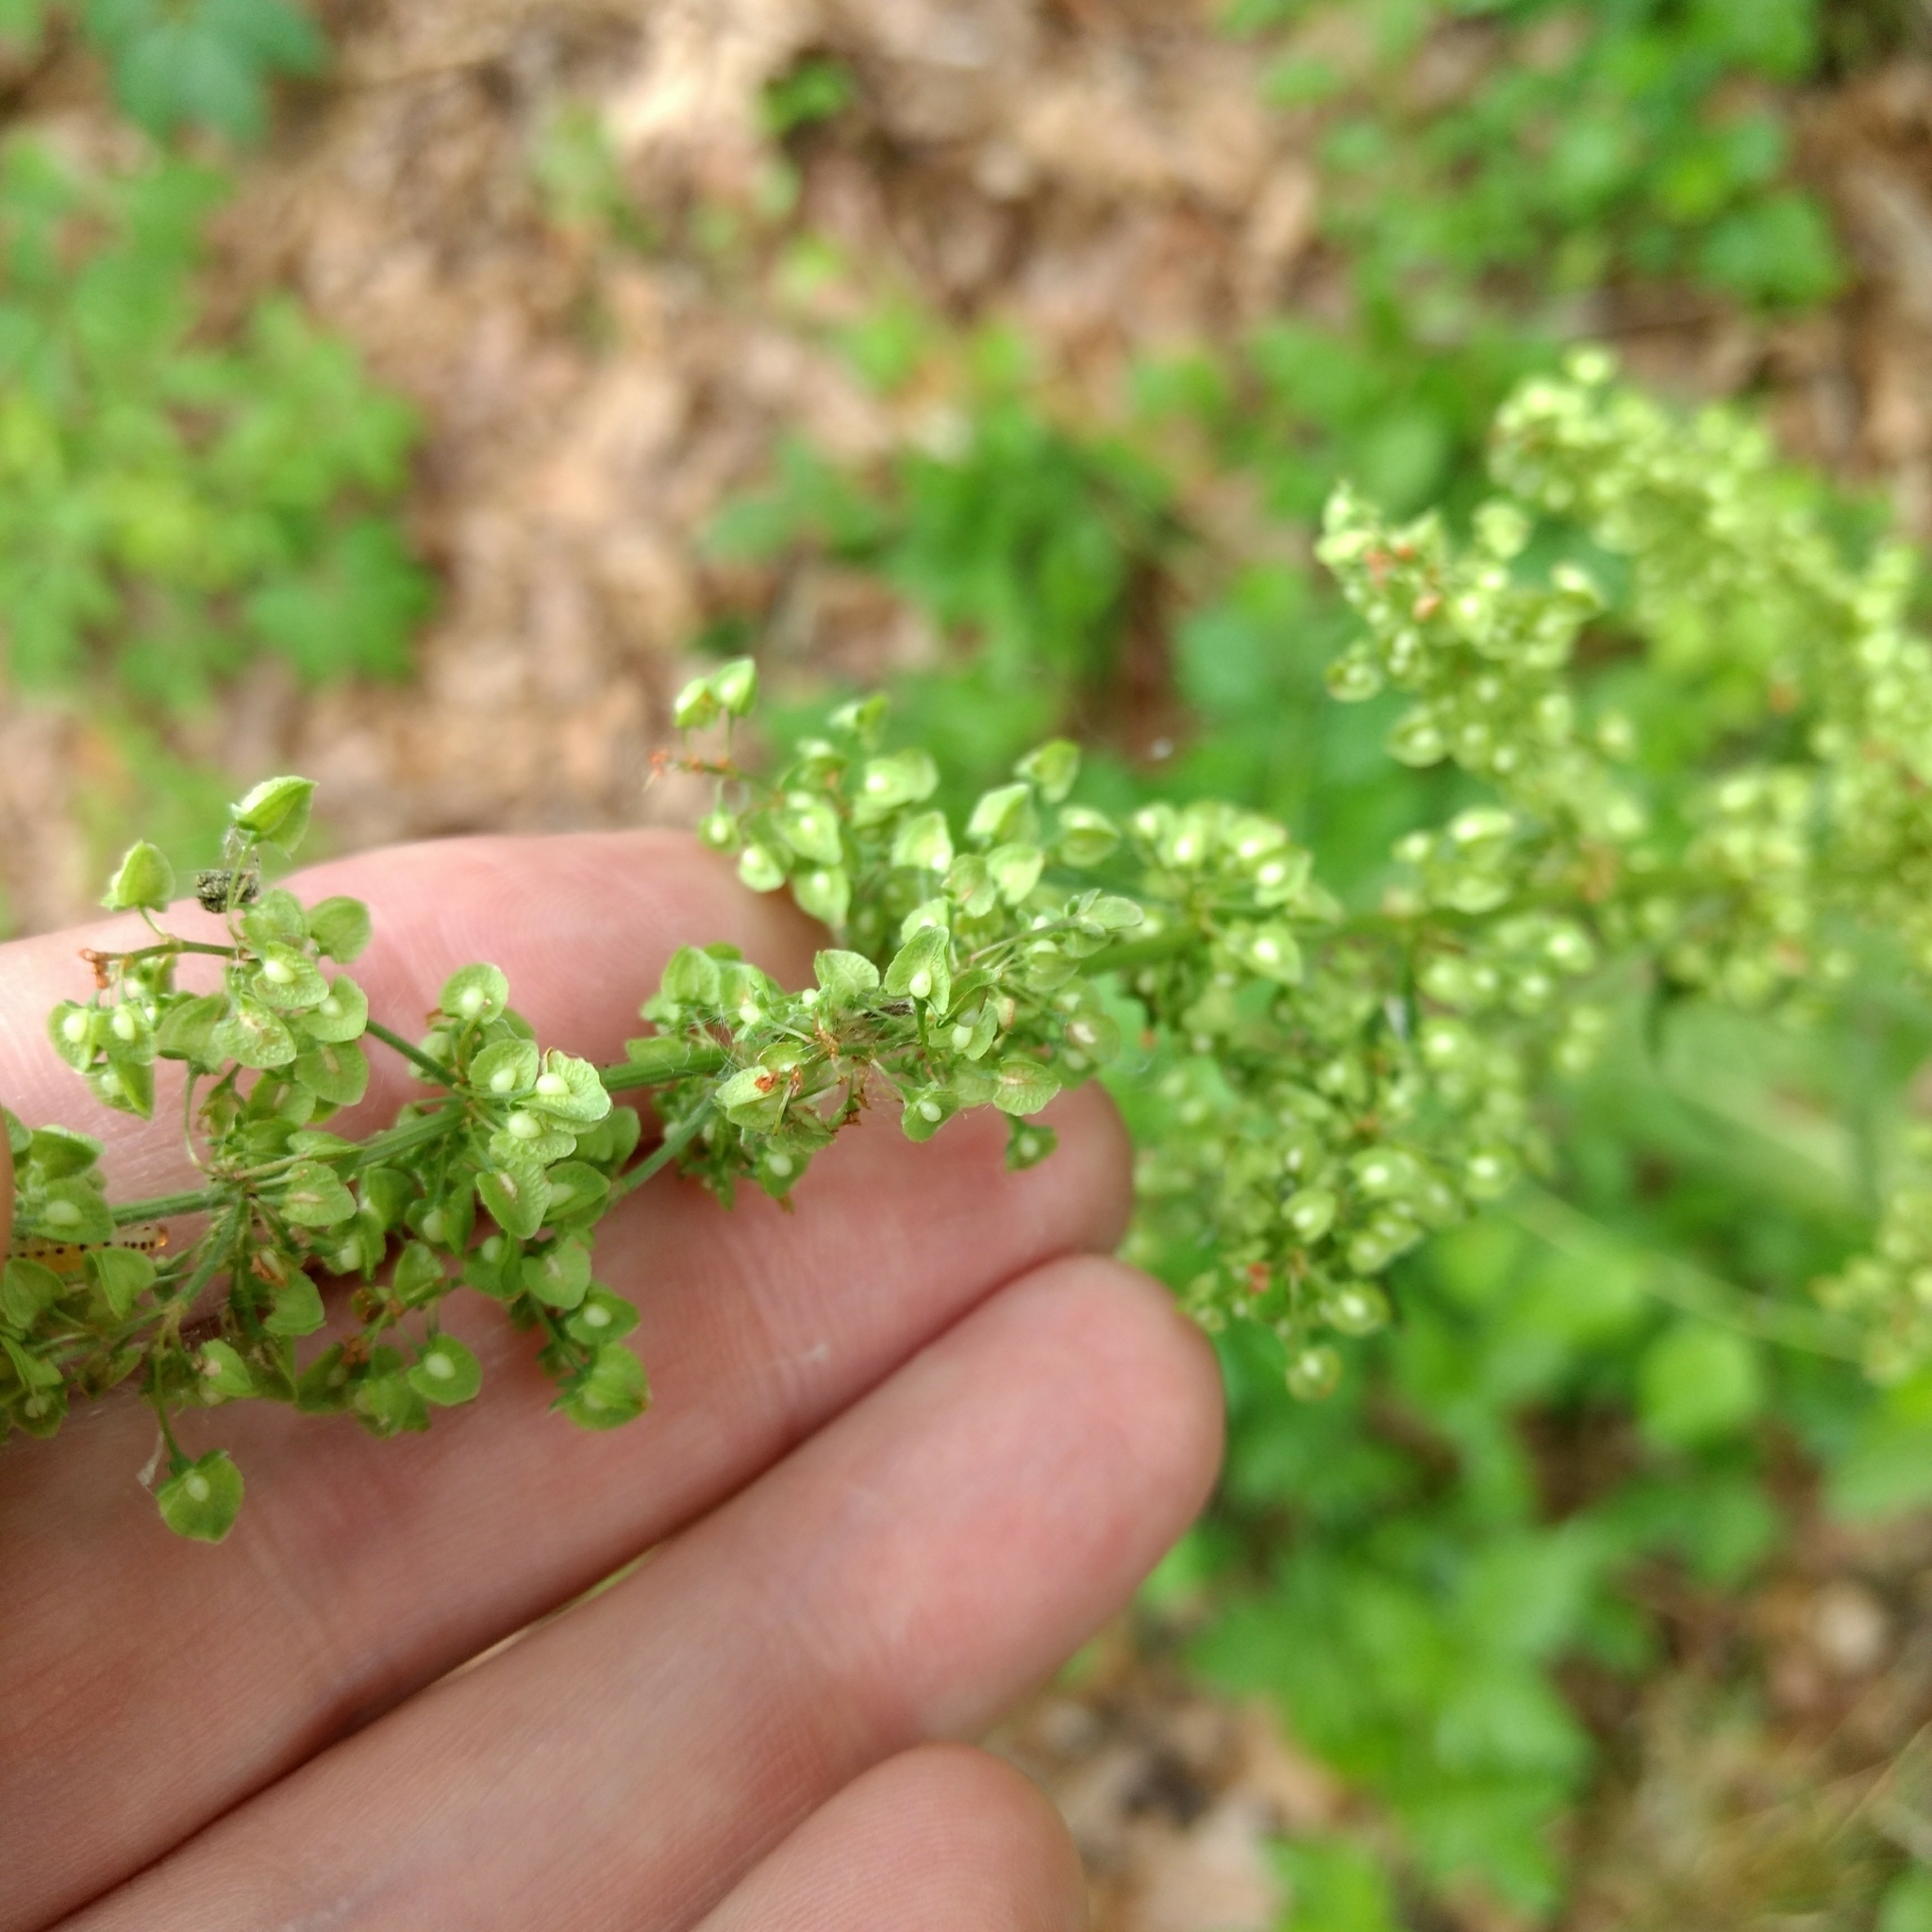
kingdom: Plantae
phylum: Tracheophyta
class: Magnoliopsida
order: Caryophyllales
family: Polygonaceae
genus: Rumex
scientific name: Rumex crispus
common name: Curled dock
